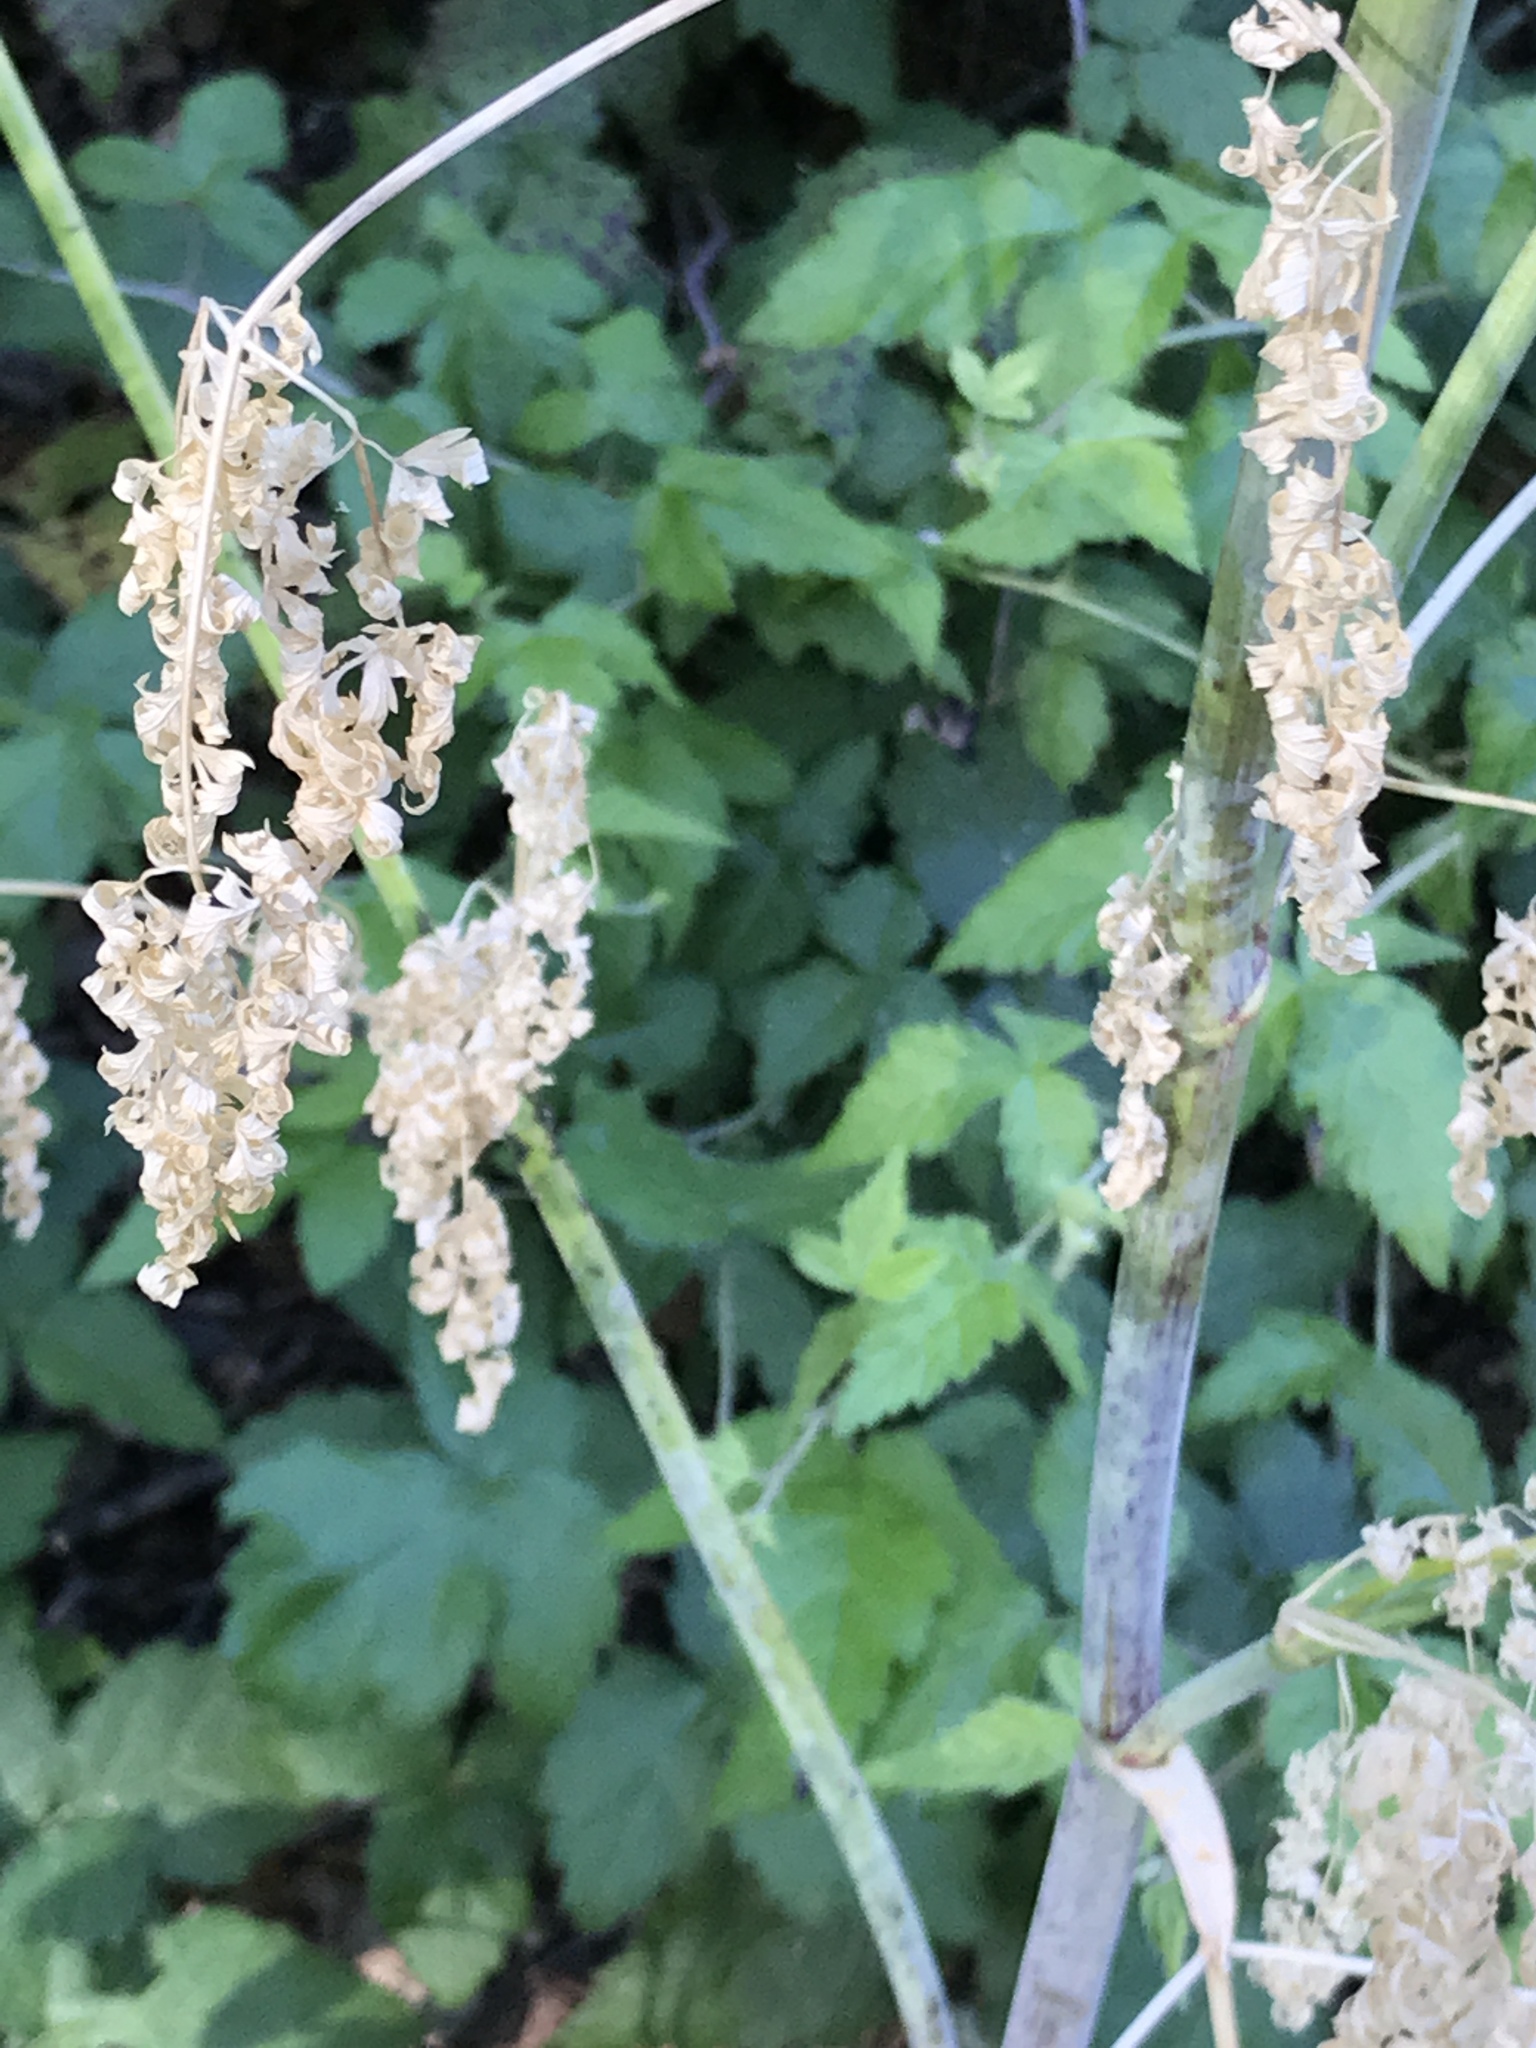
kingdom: Plantae
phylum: Tracheophyta
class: Magnoliopsida
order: Apiales
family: Apiaceae
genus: Conium
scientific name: Conium maculatum
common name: Hemlock
